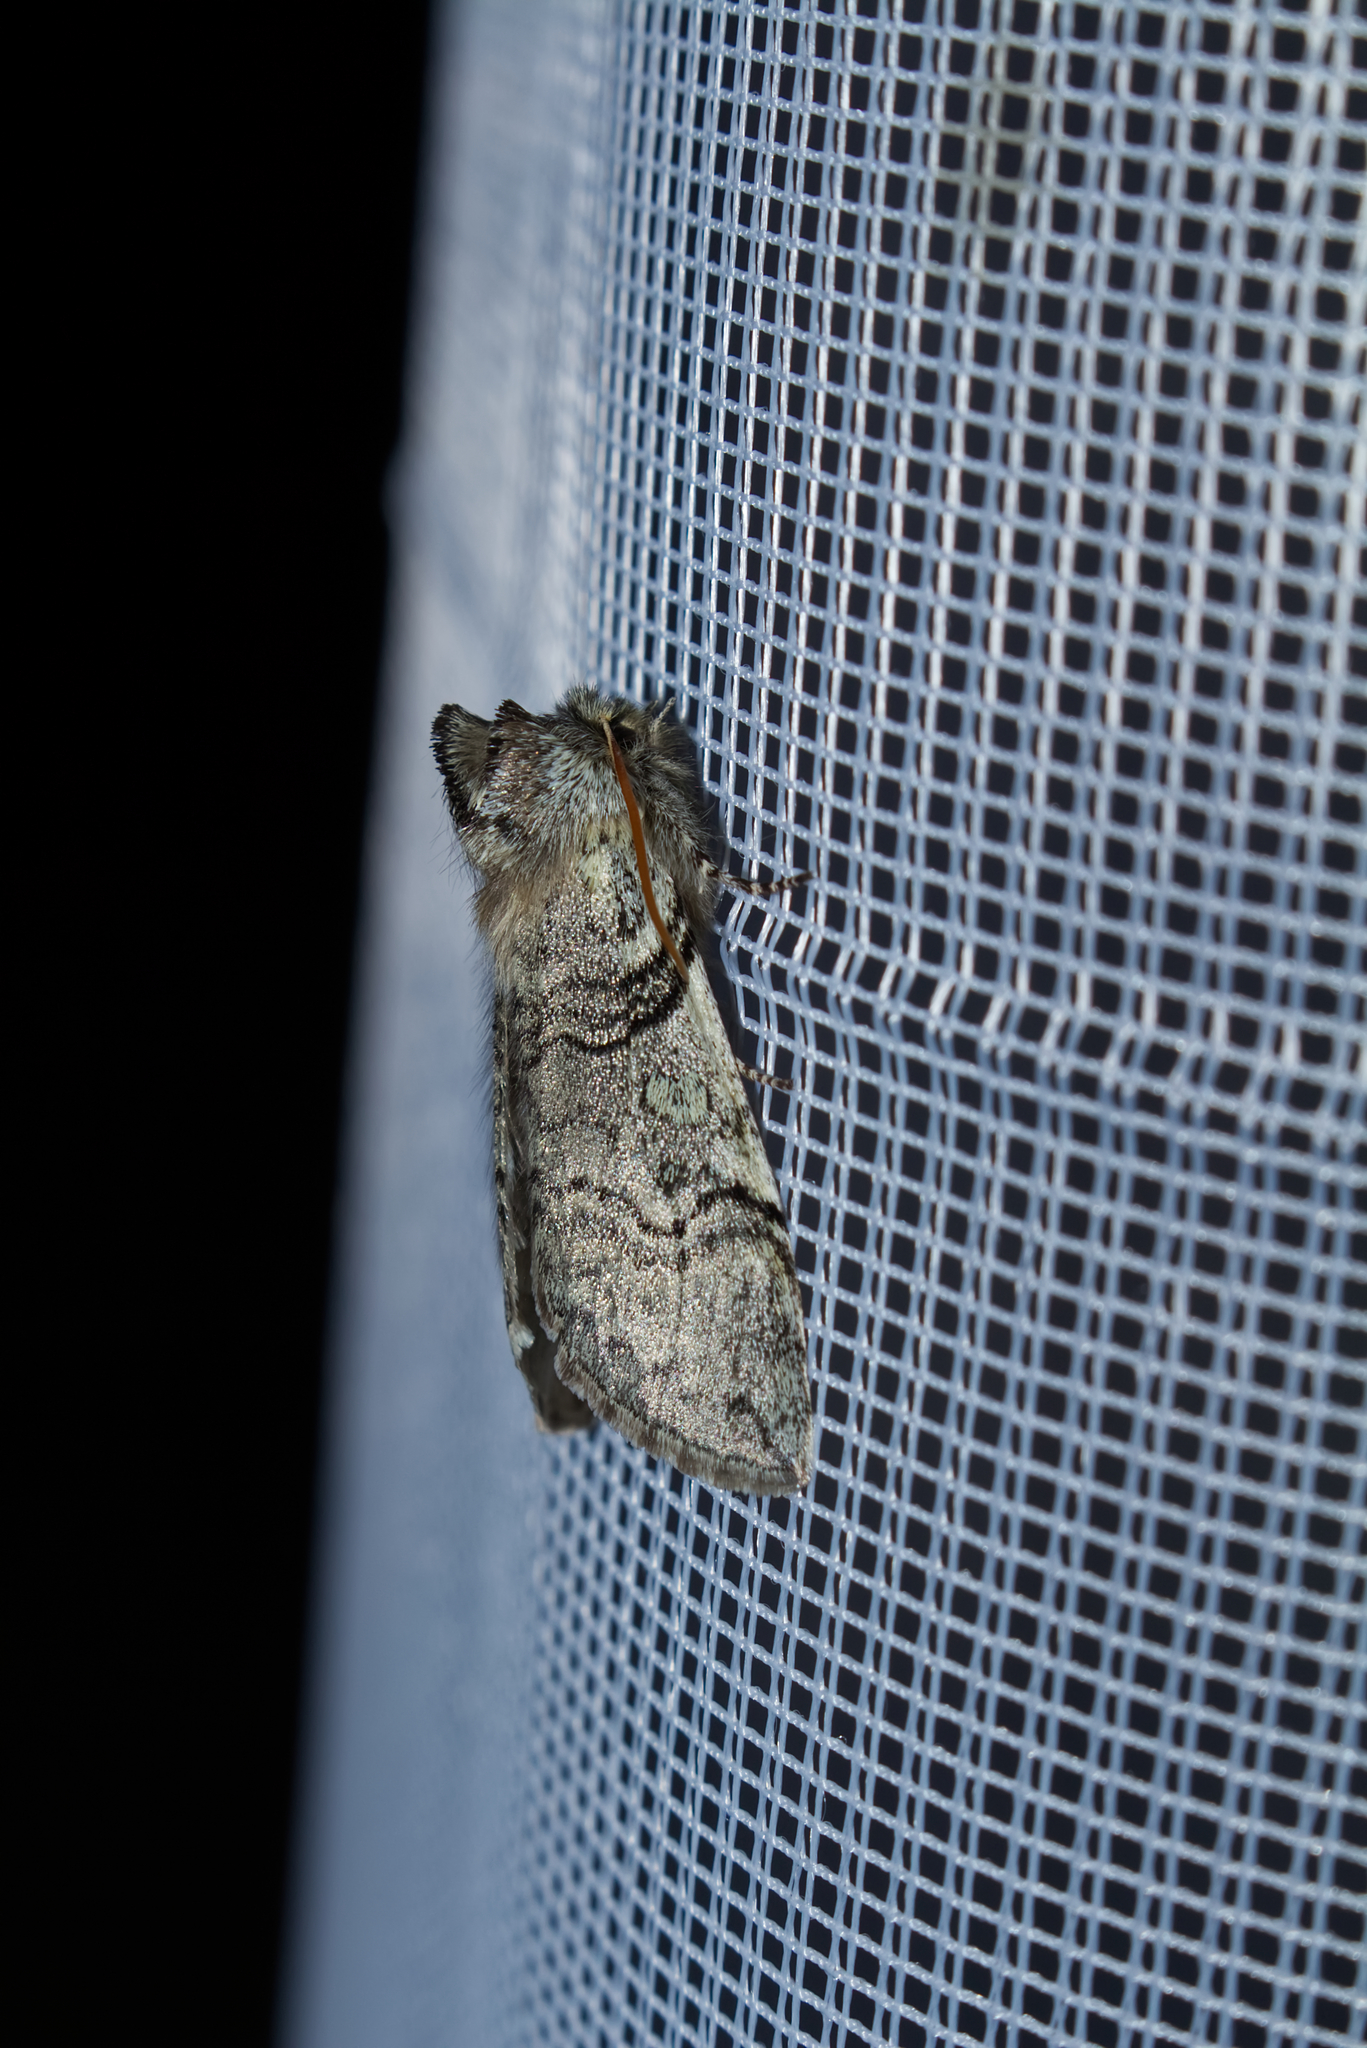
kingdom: Animalia
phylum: Arthropoda
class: Insecta
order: Lepidoptera
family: Drepanidae
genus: Achlya
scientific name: Achlya flavicornis
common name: Yellow horned
